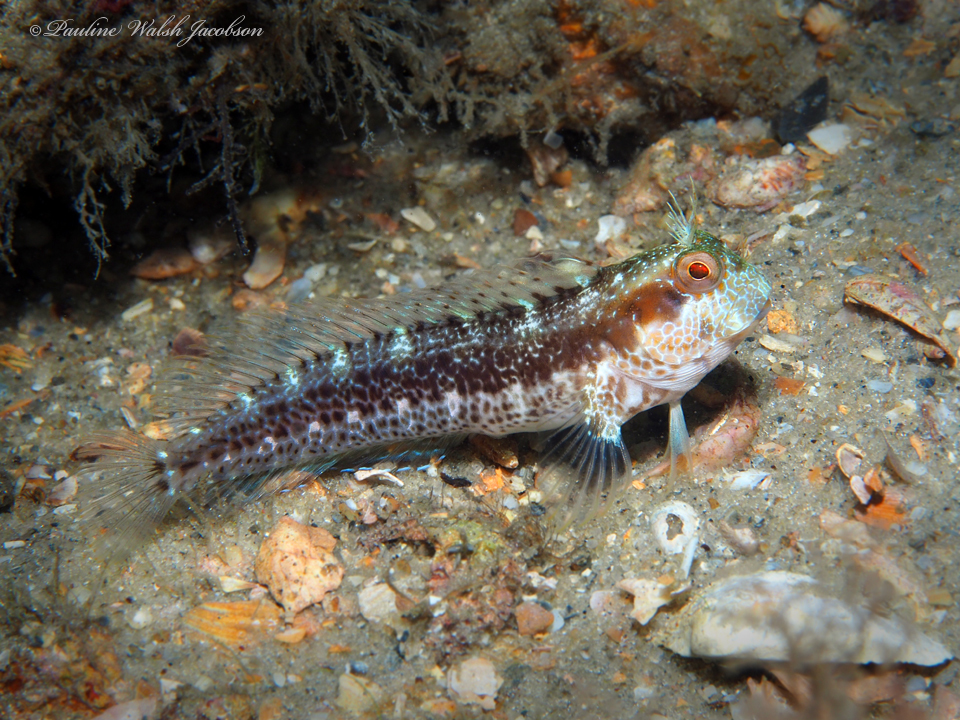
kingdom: Animalia
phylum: Chordata
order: Perciformes
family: Blenniidae
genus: Parablennius
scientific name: Parablennius marmoreus
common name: Seaweed blenny
